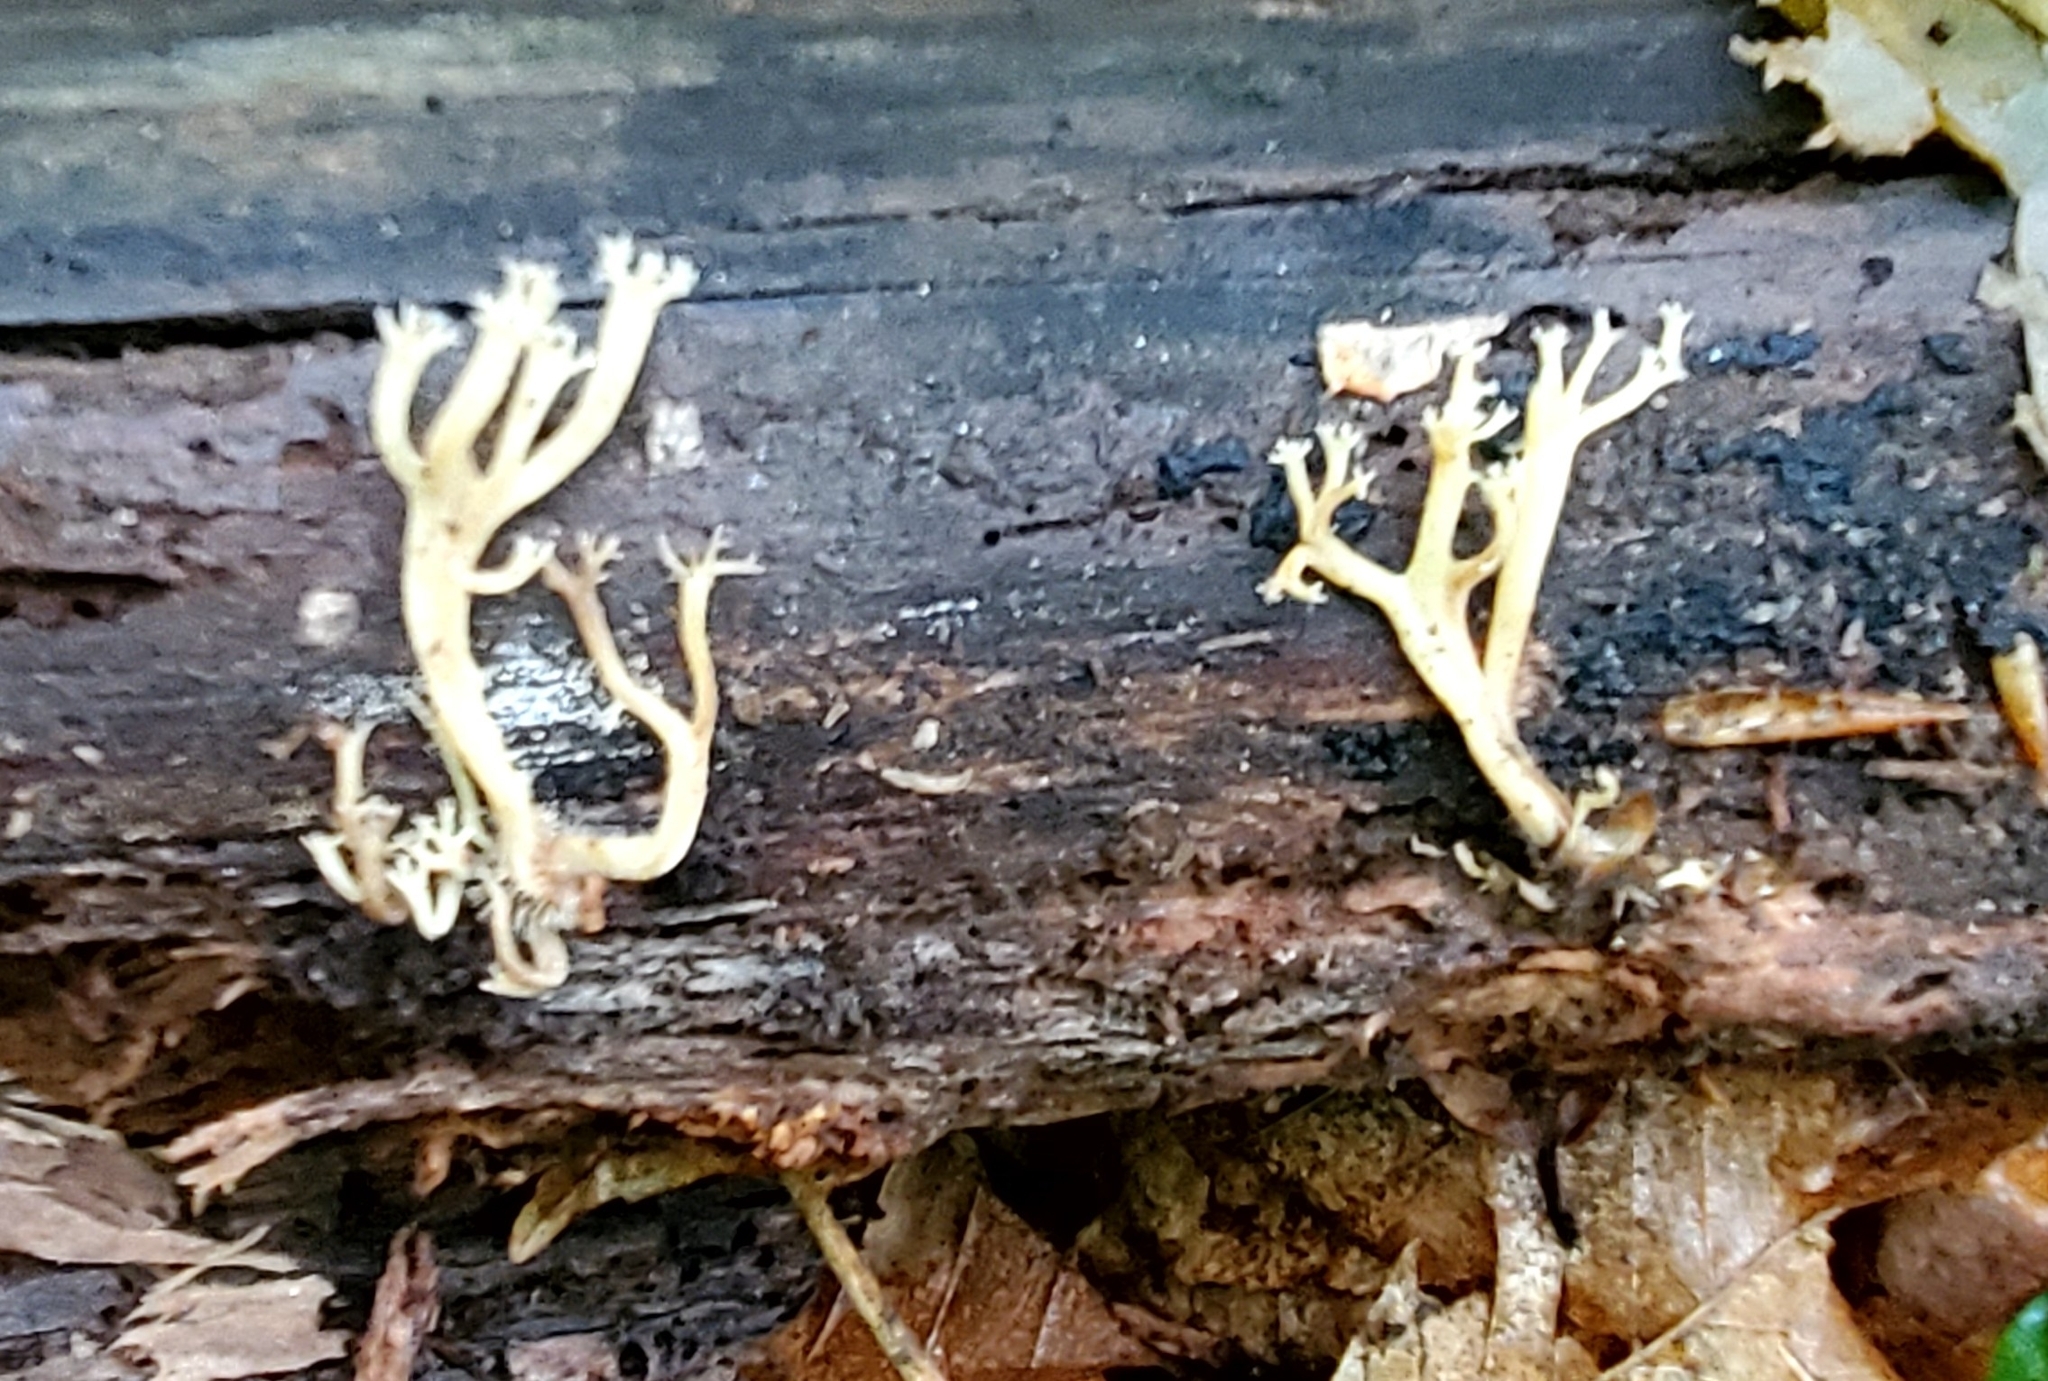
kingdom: Fungi
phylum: Basidiomycota
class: Agaricomycetes
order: Russulales
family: Auriscalpiaceae
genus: Artomyces
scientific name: Artomyces pyxidatus
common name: Crown-tipped coral fungus
